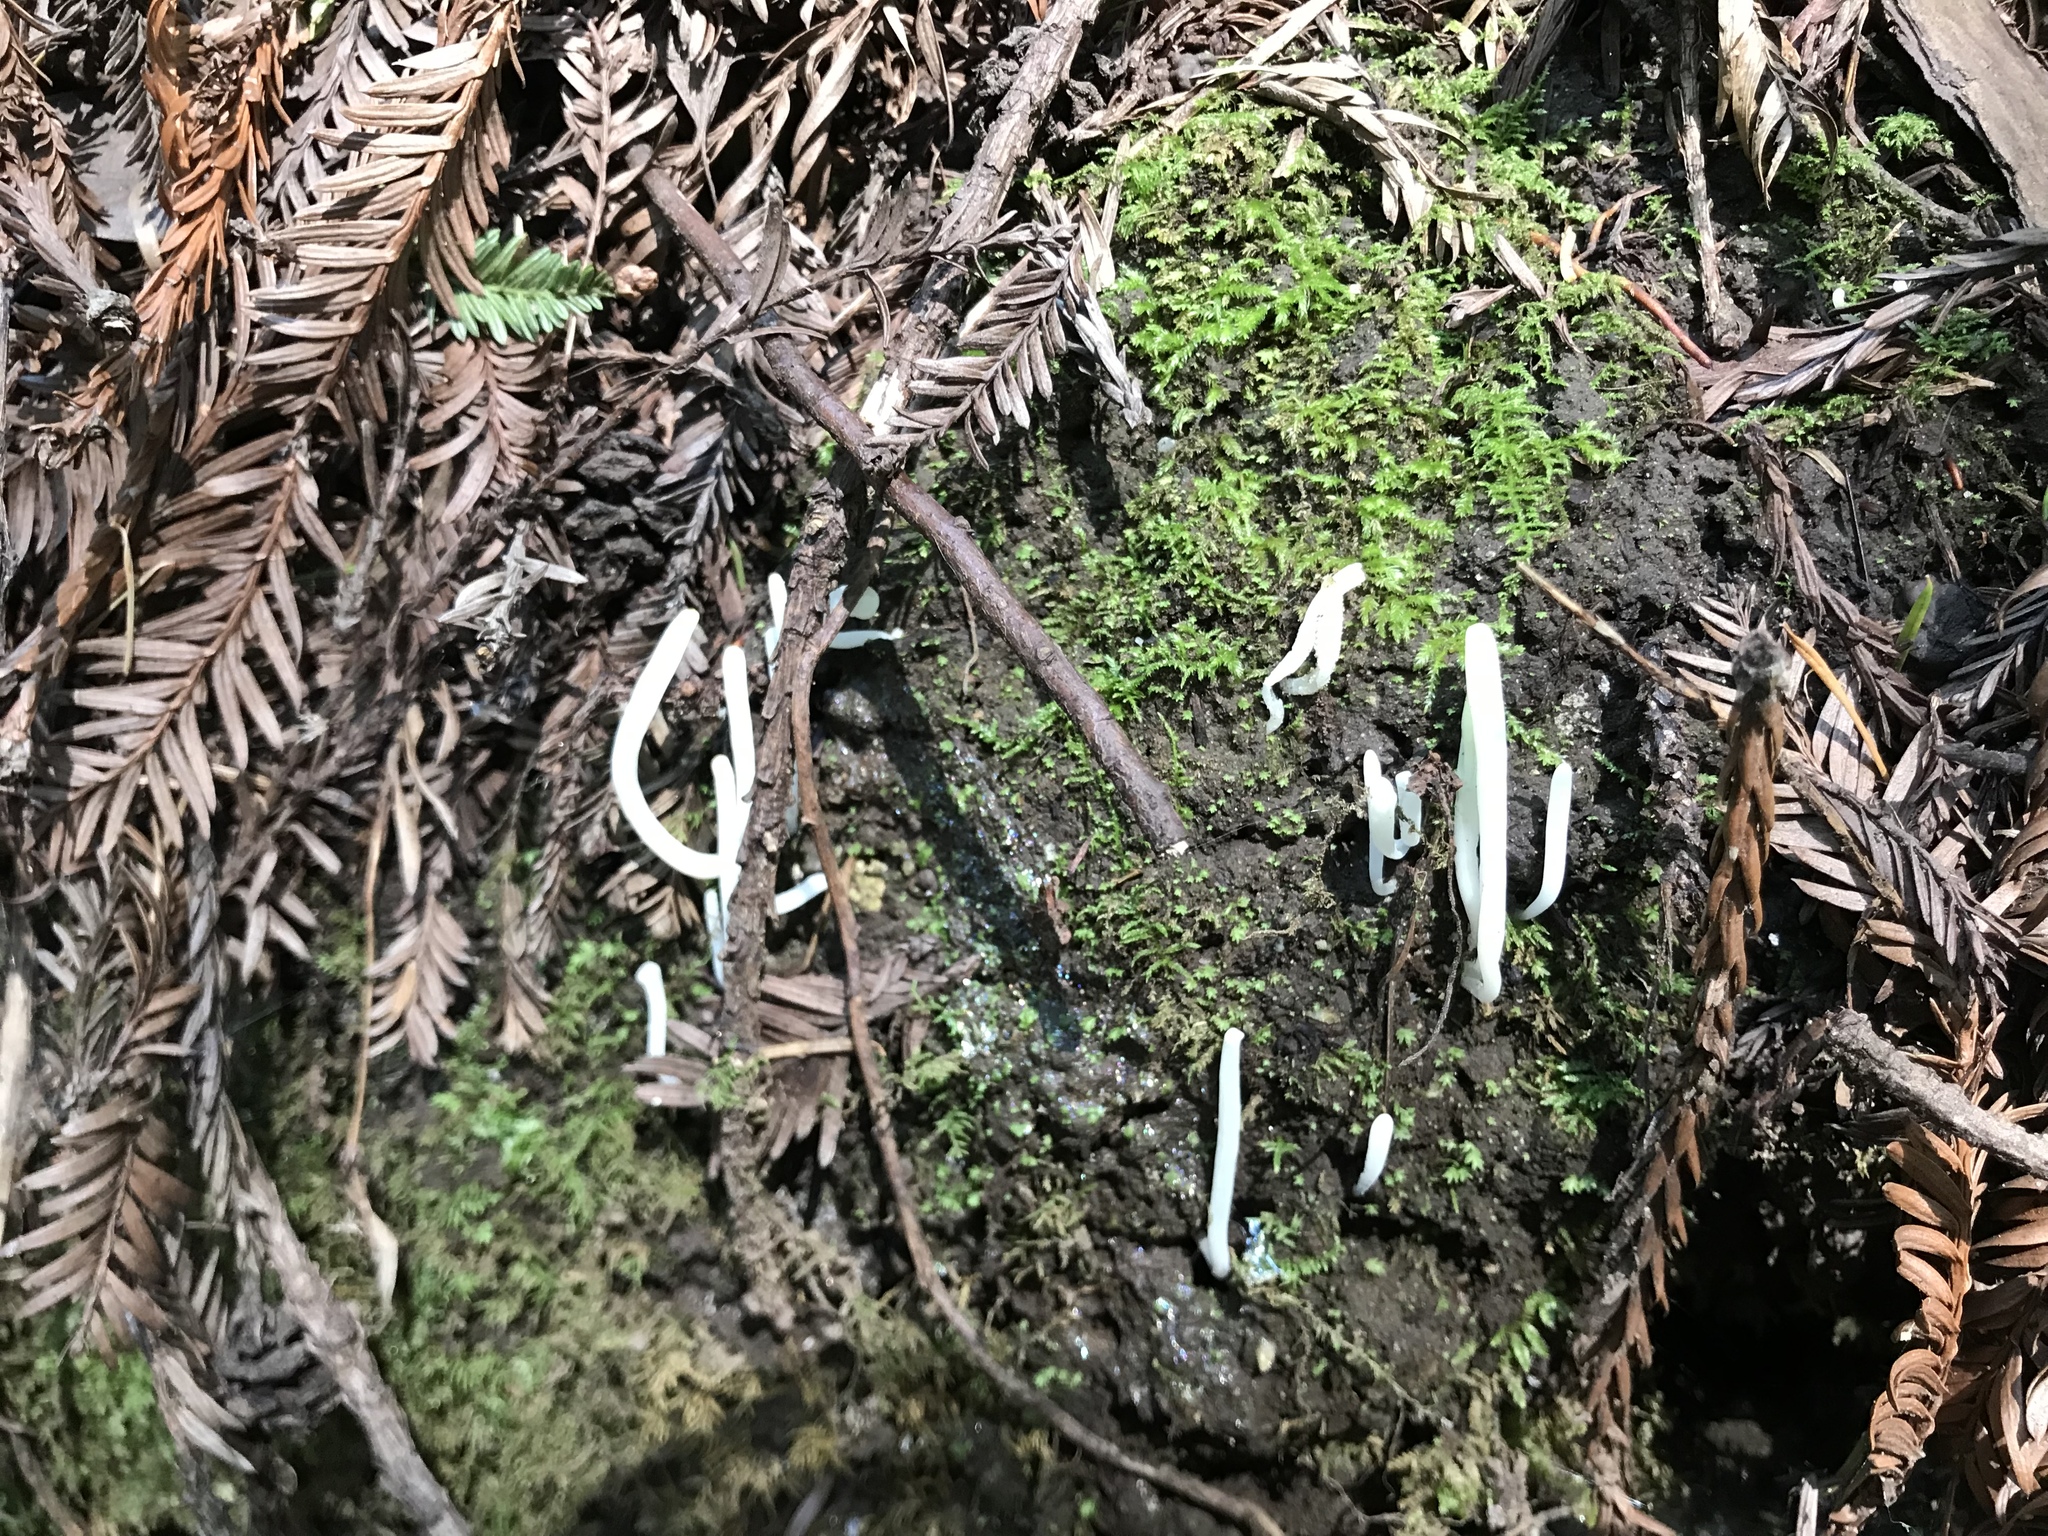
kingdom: Fungi
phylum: Basidiomycota
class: Agaricomycetes
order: Agaricales
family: Clavariaceae
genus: Clavaria
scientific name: Clavaria fragilis
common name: White spindles
